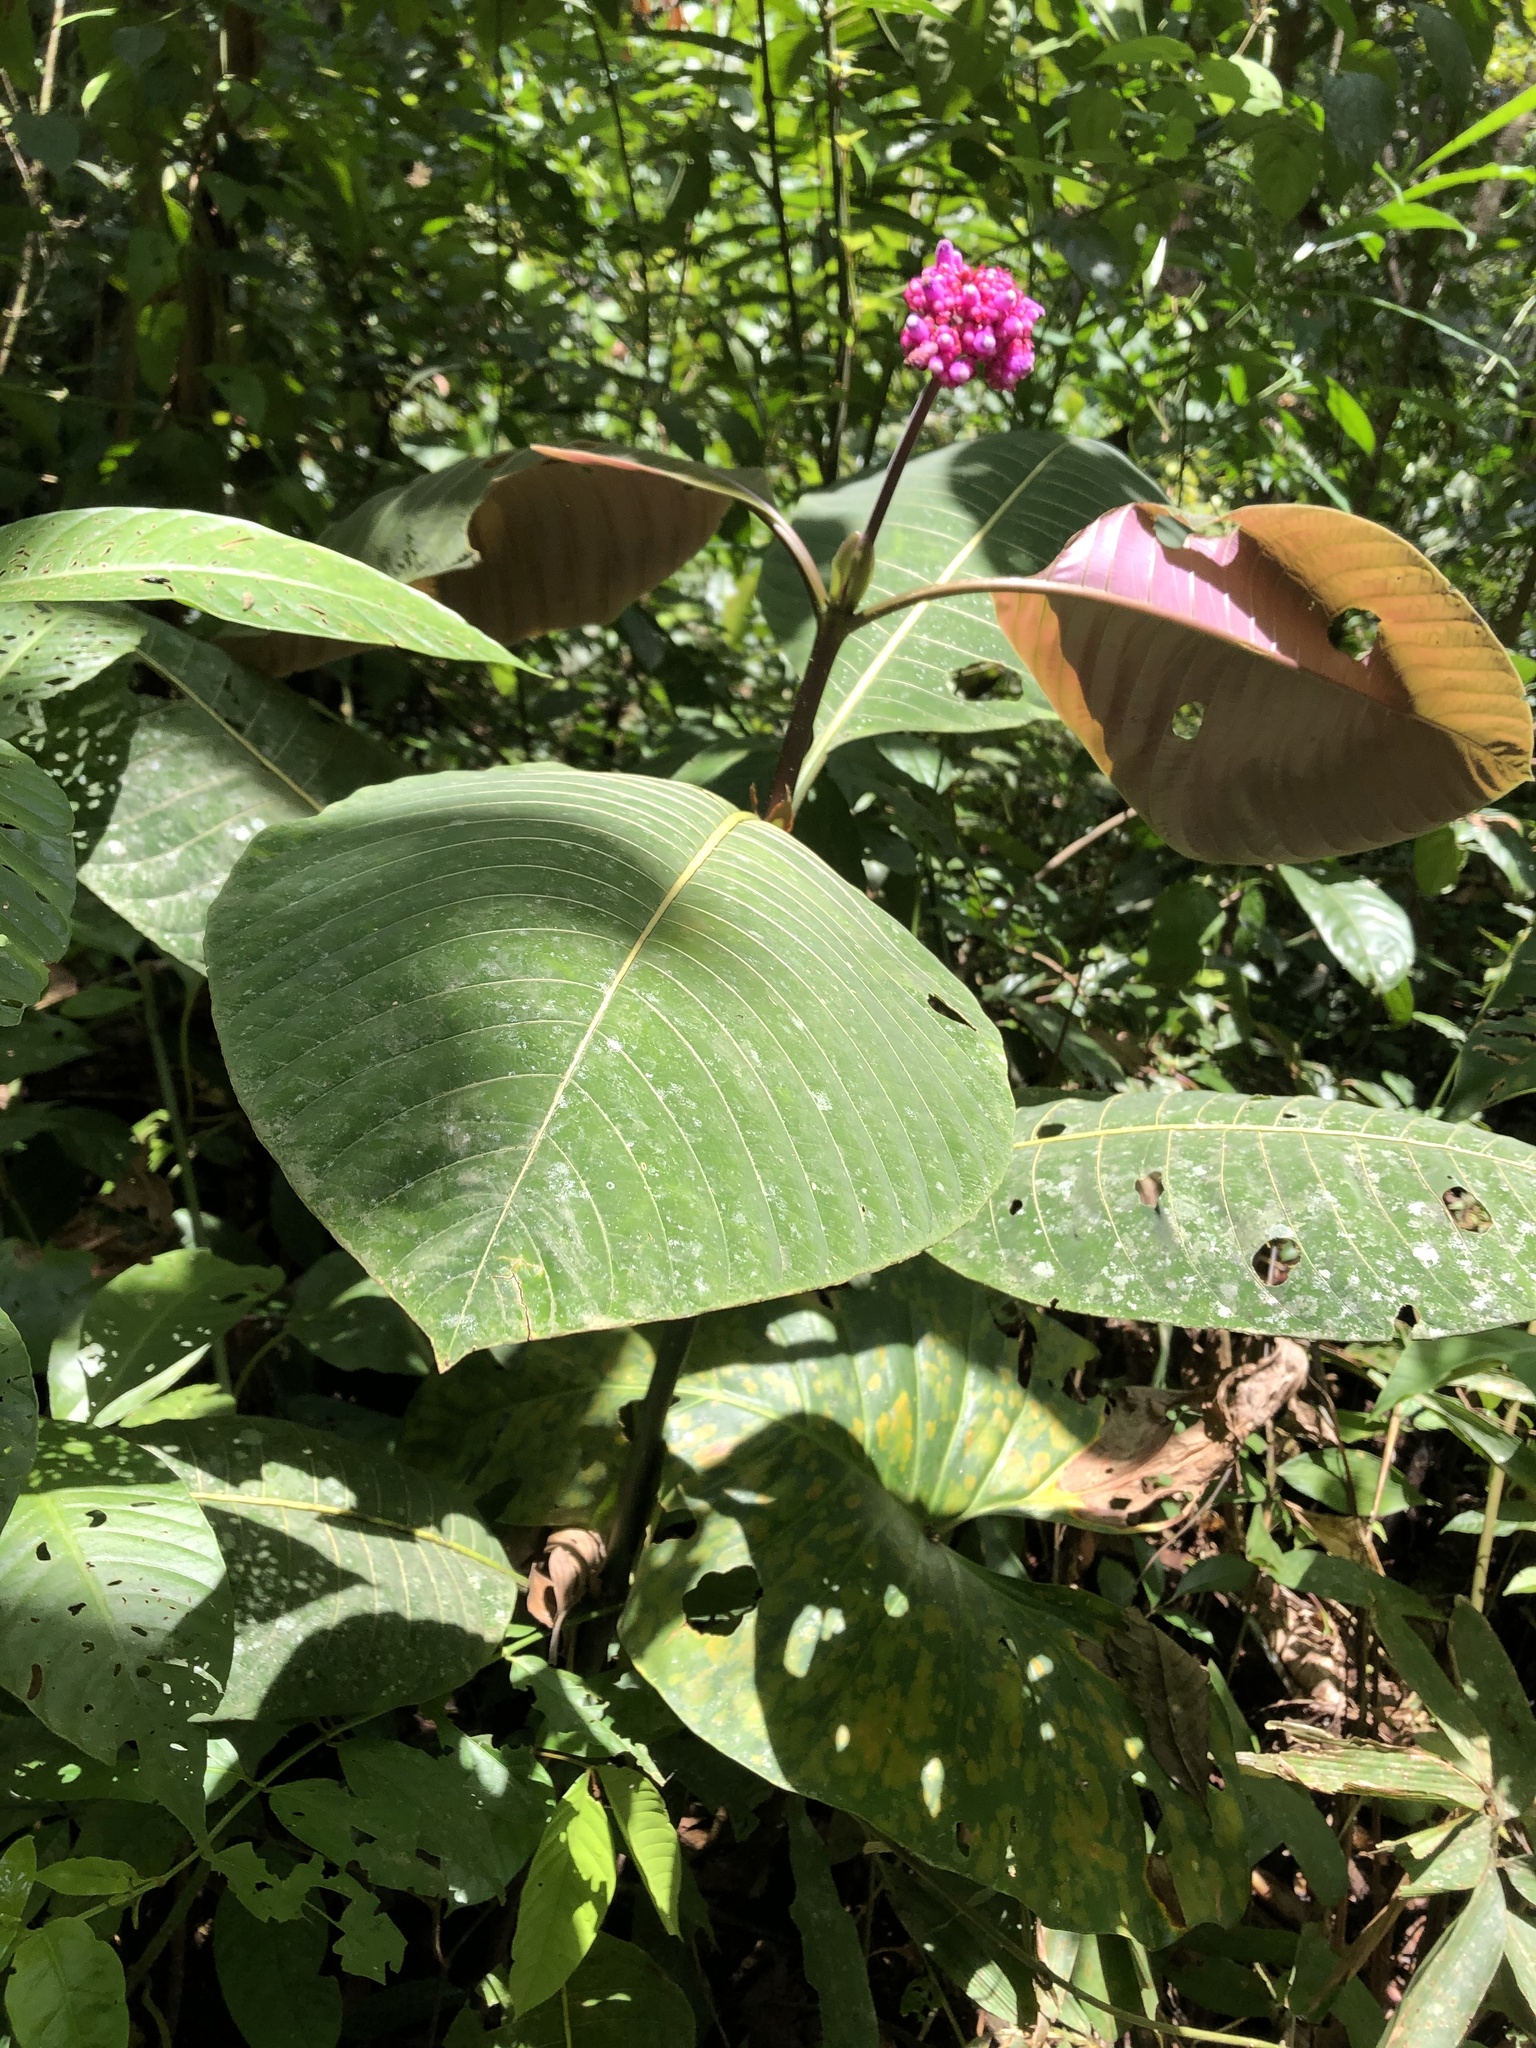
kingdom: Plantae
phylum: Tracheophyta
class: Magnoliopsida
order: Gentianales
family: Rubiaceae
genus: Palicourea
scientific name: Palicourea paulina
